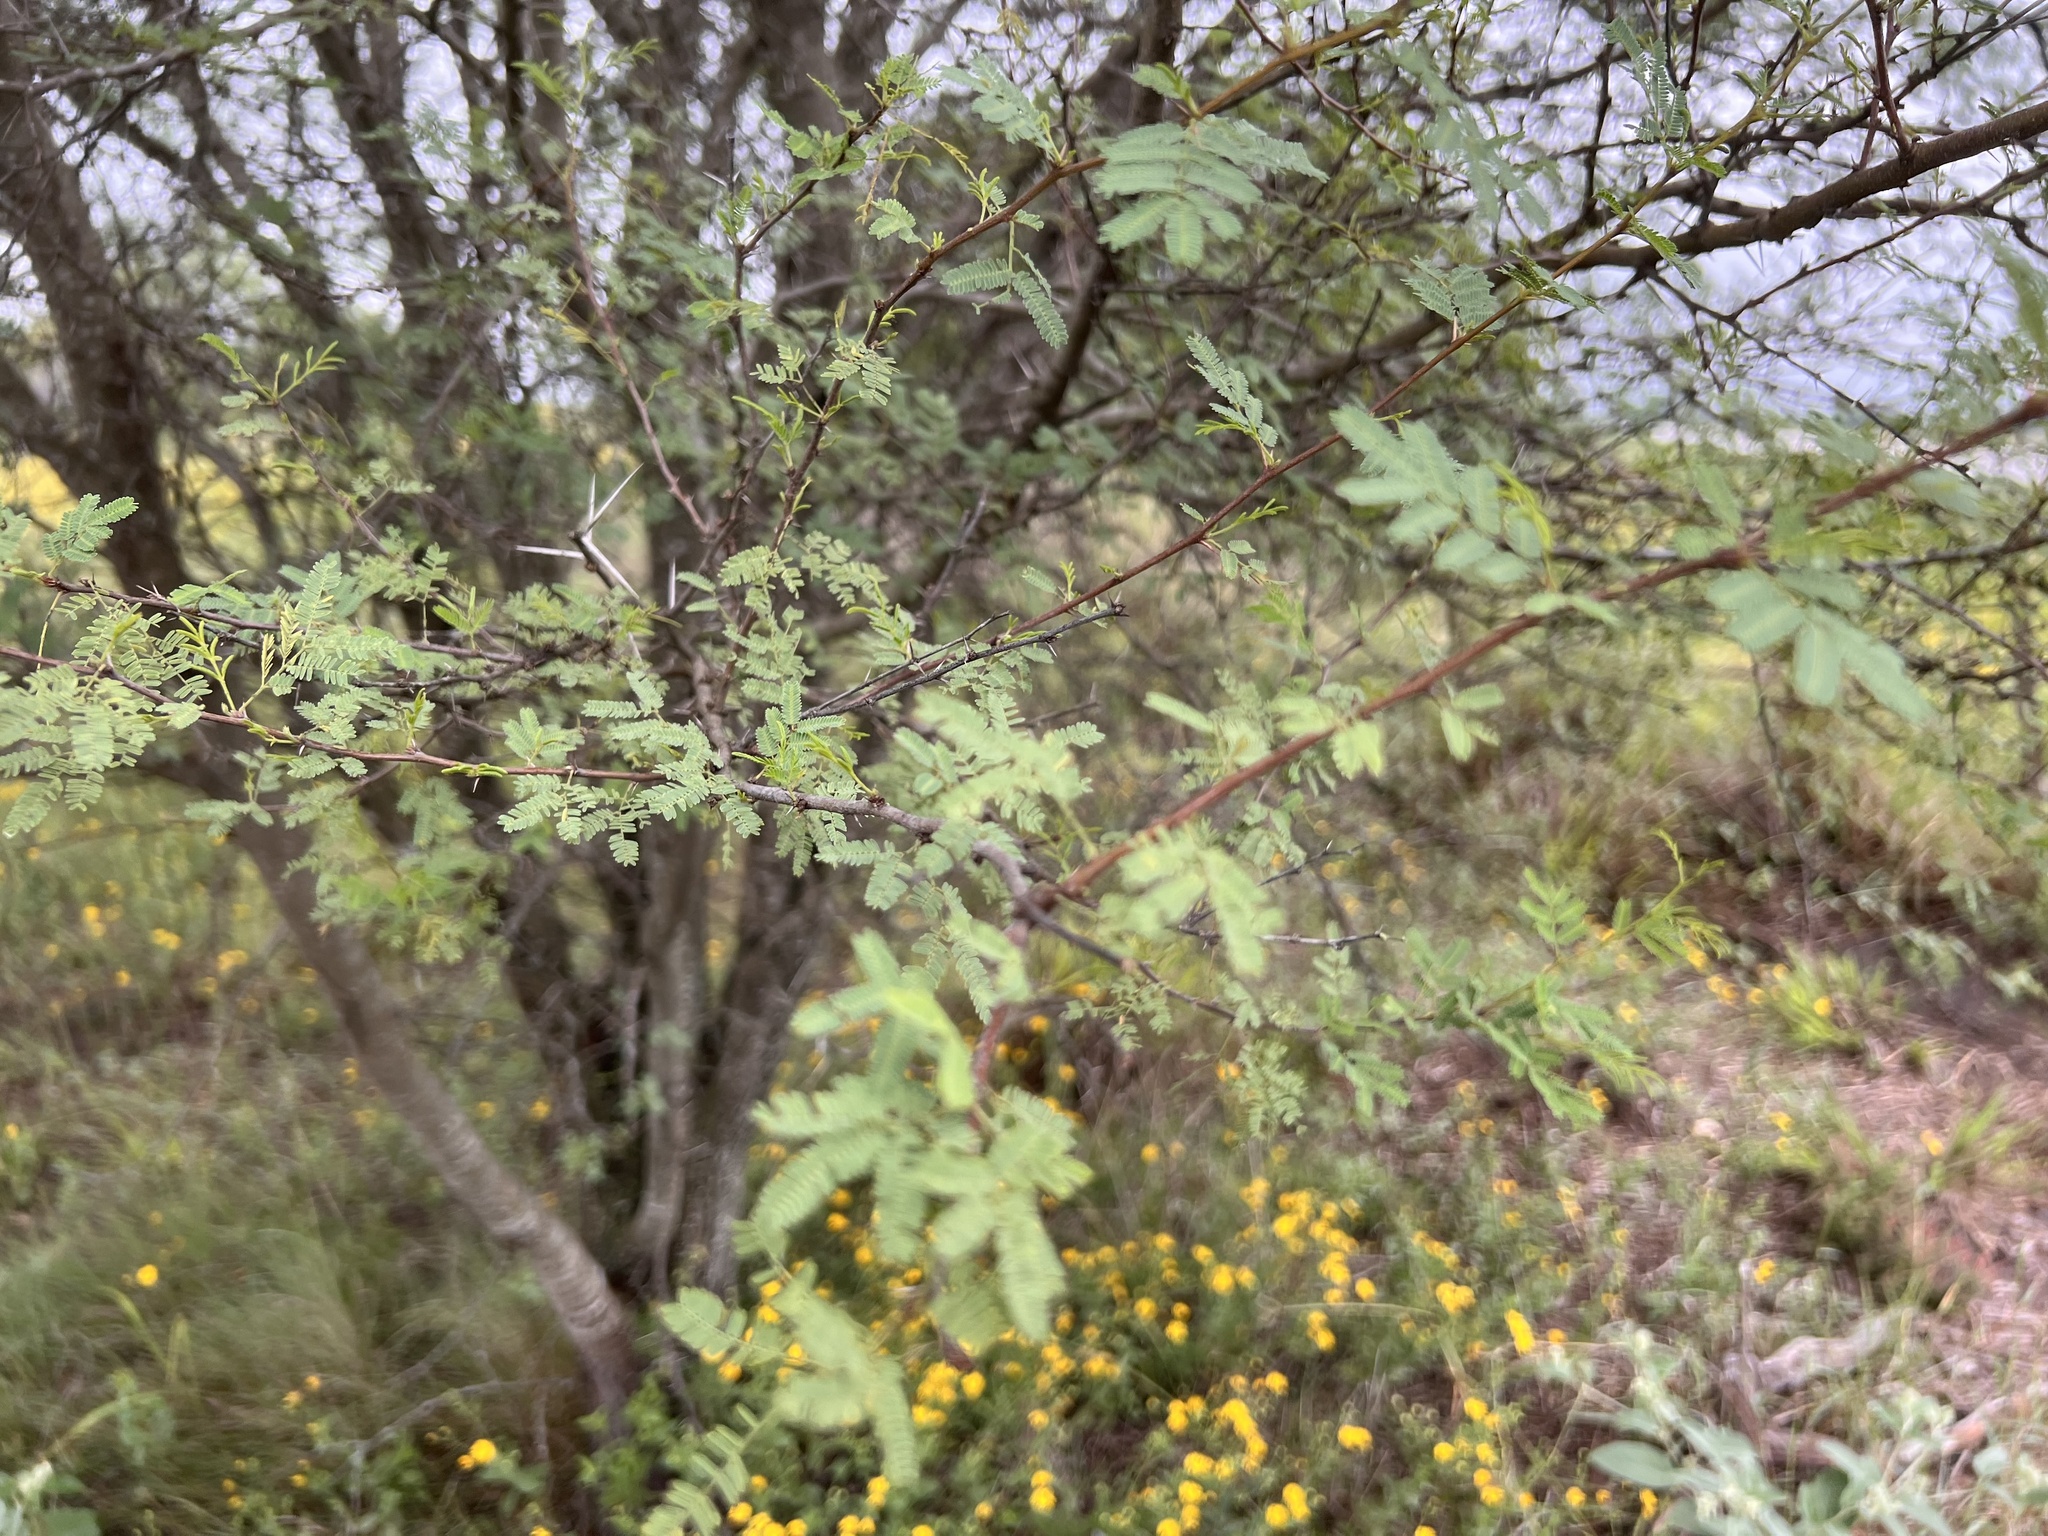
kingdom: Plantae
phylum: Tracheophyta
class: Magnoliopsida
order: Fabales
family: Fabaceae
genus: Vachellia
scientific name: Vachellia farnesiana
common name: Sweet acacia
